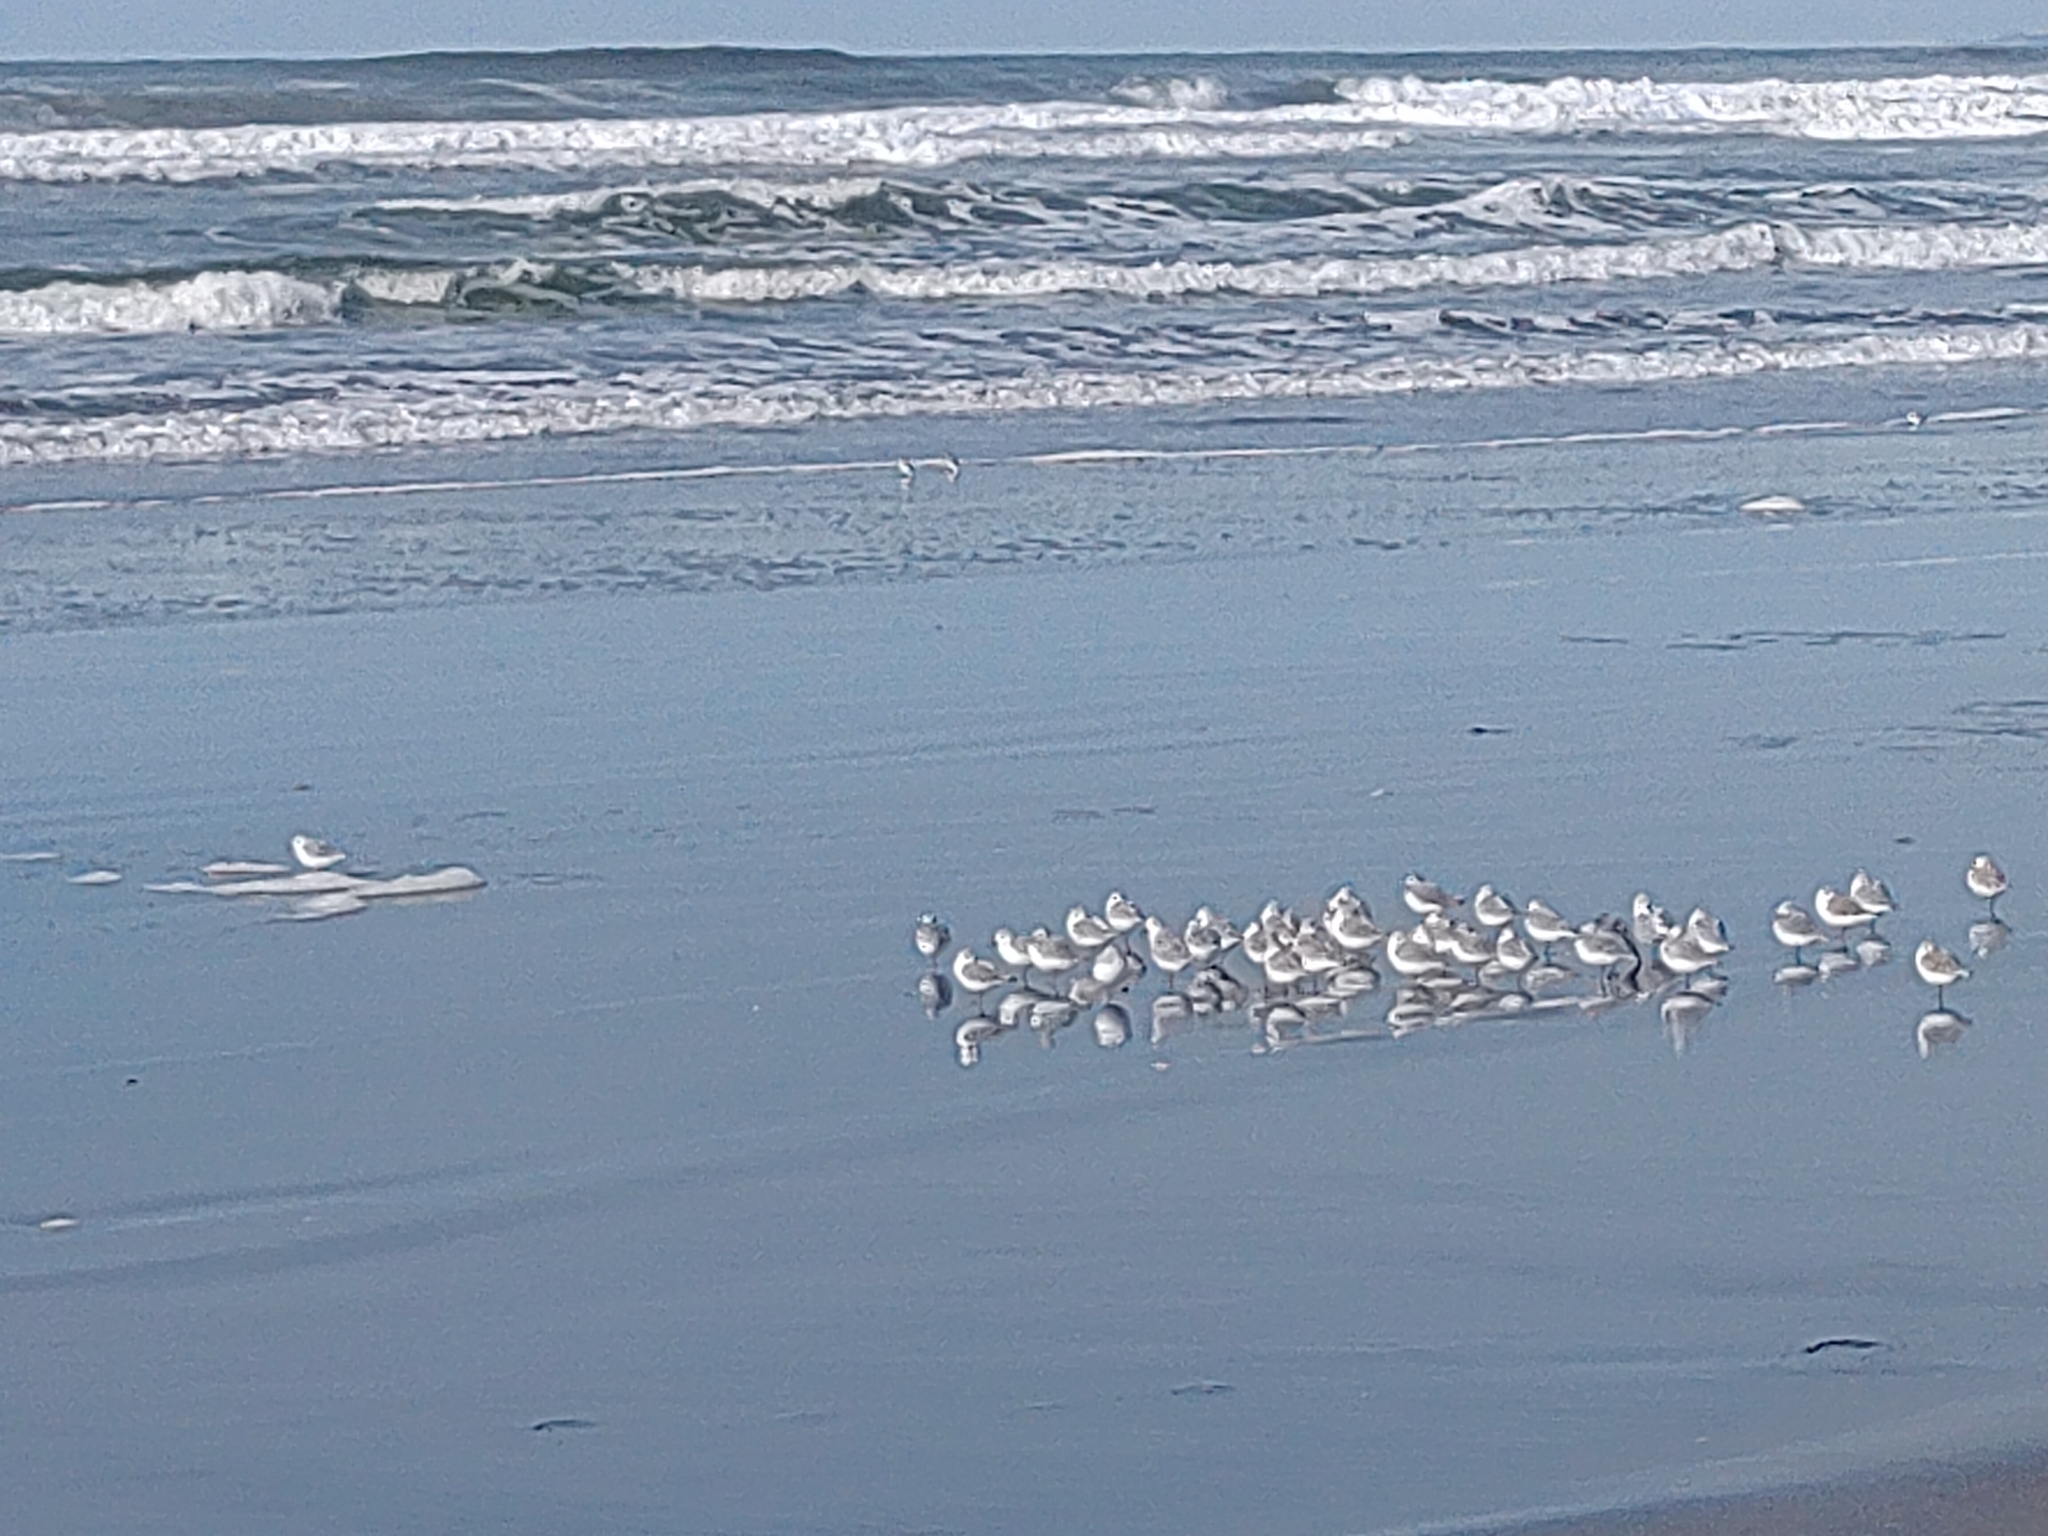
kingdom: Animalia
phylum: Chordata
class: Aves
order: Charadriiformes
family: Scolopacidae
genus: Calidris
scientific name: Calidris alba
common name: Sanderling
